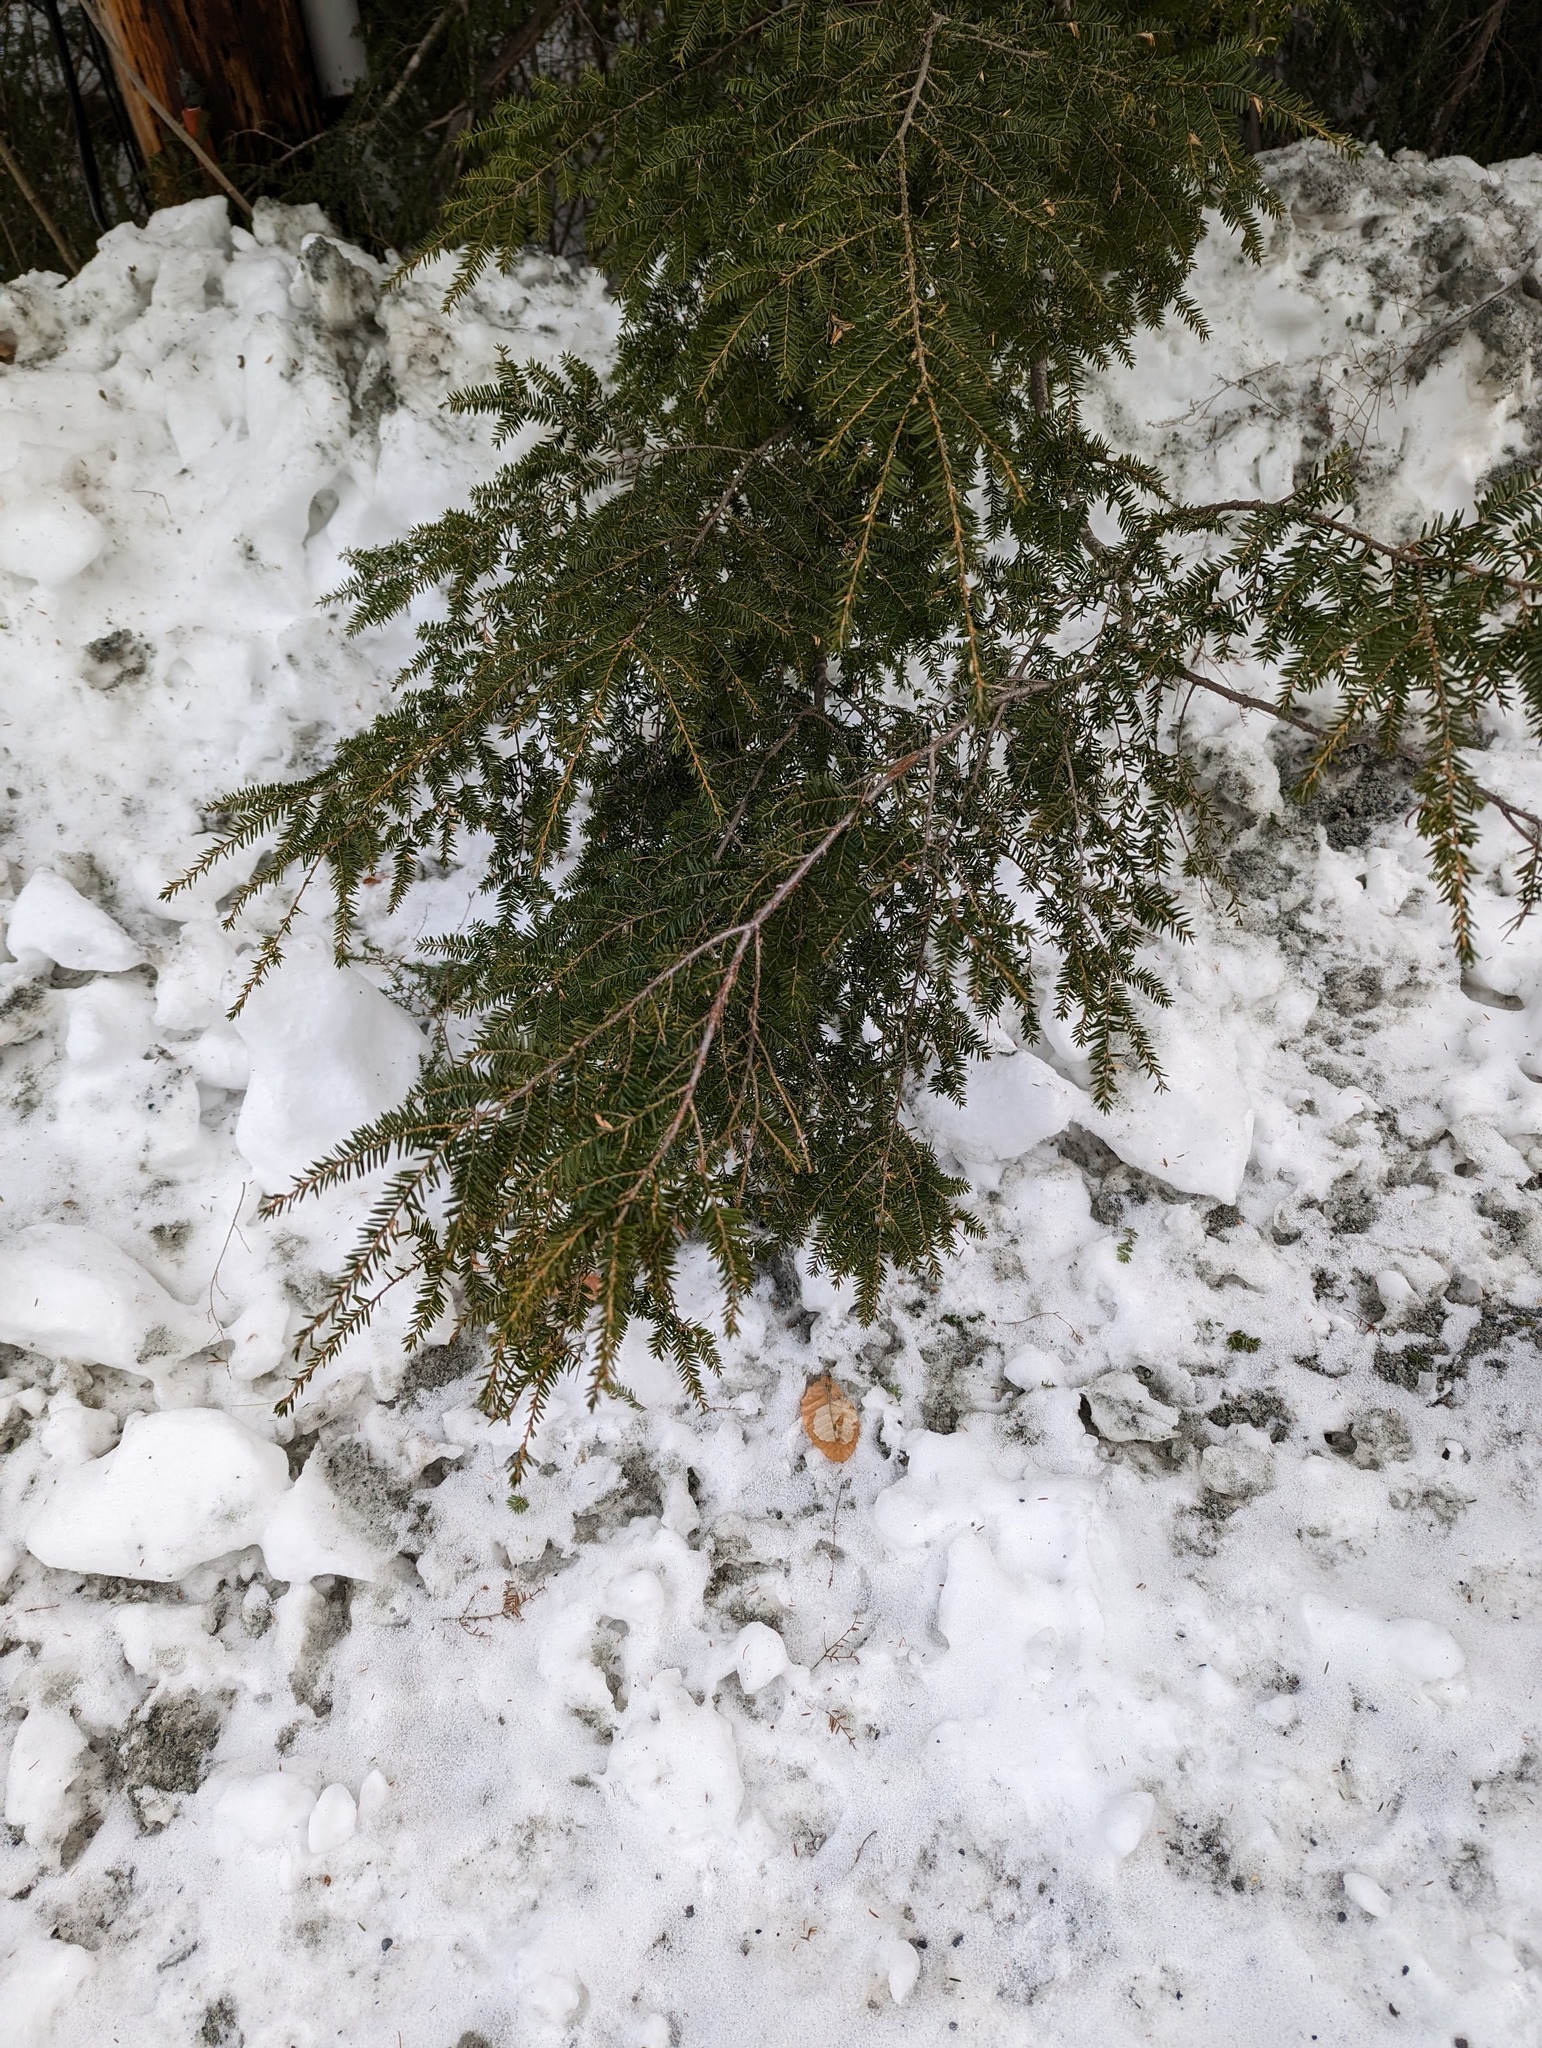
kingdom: Plantae
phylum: Tracheophyta
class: Pinopsida
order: Pinales
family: Pinaceae
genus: Tsuga
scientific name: Tsuga canadensis
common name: Eastern hemlock
